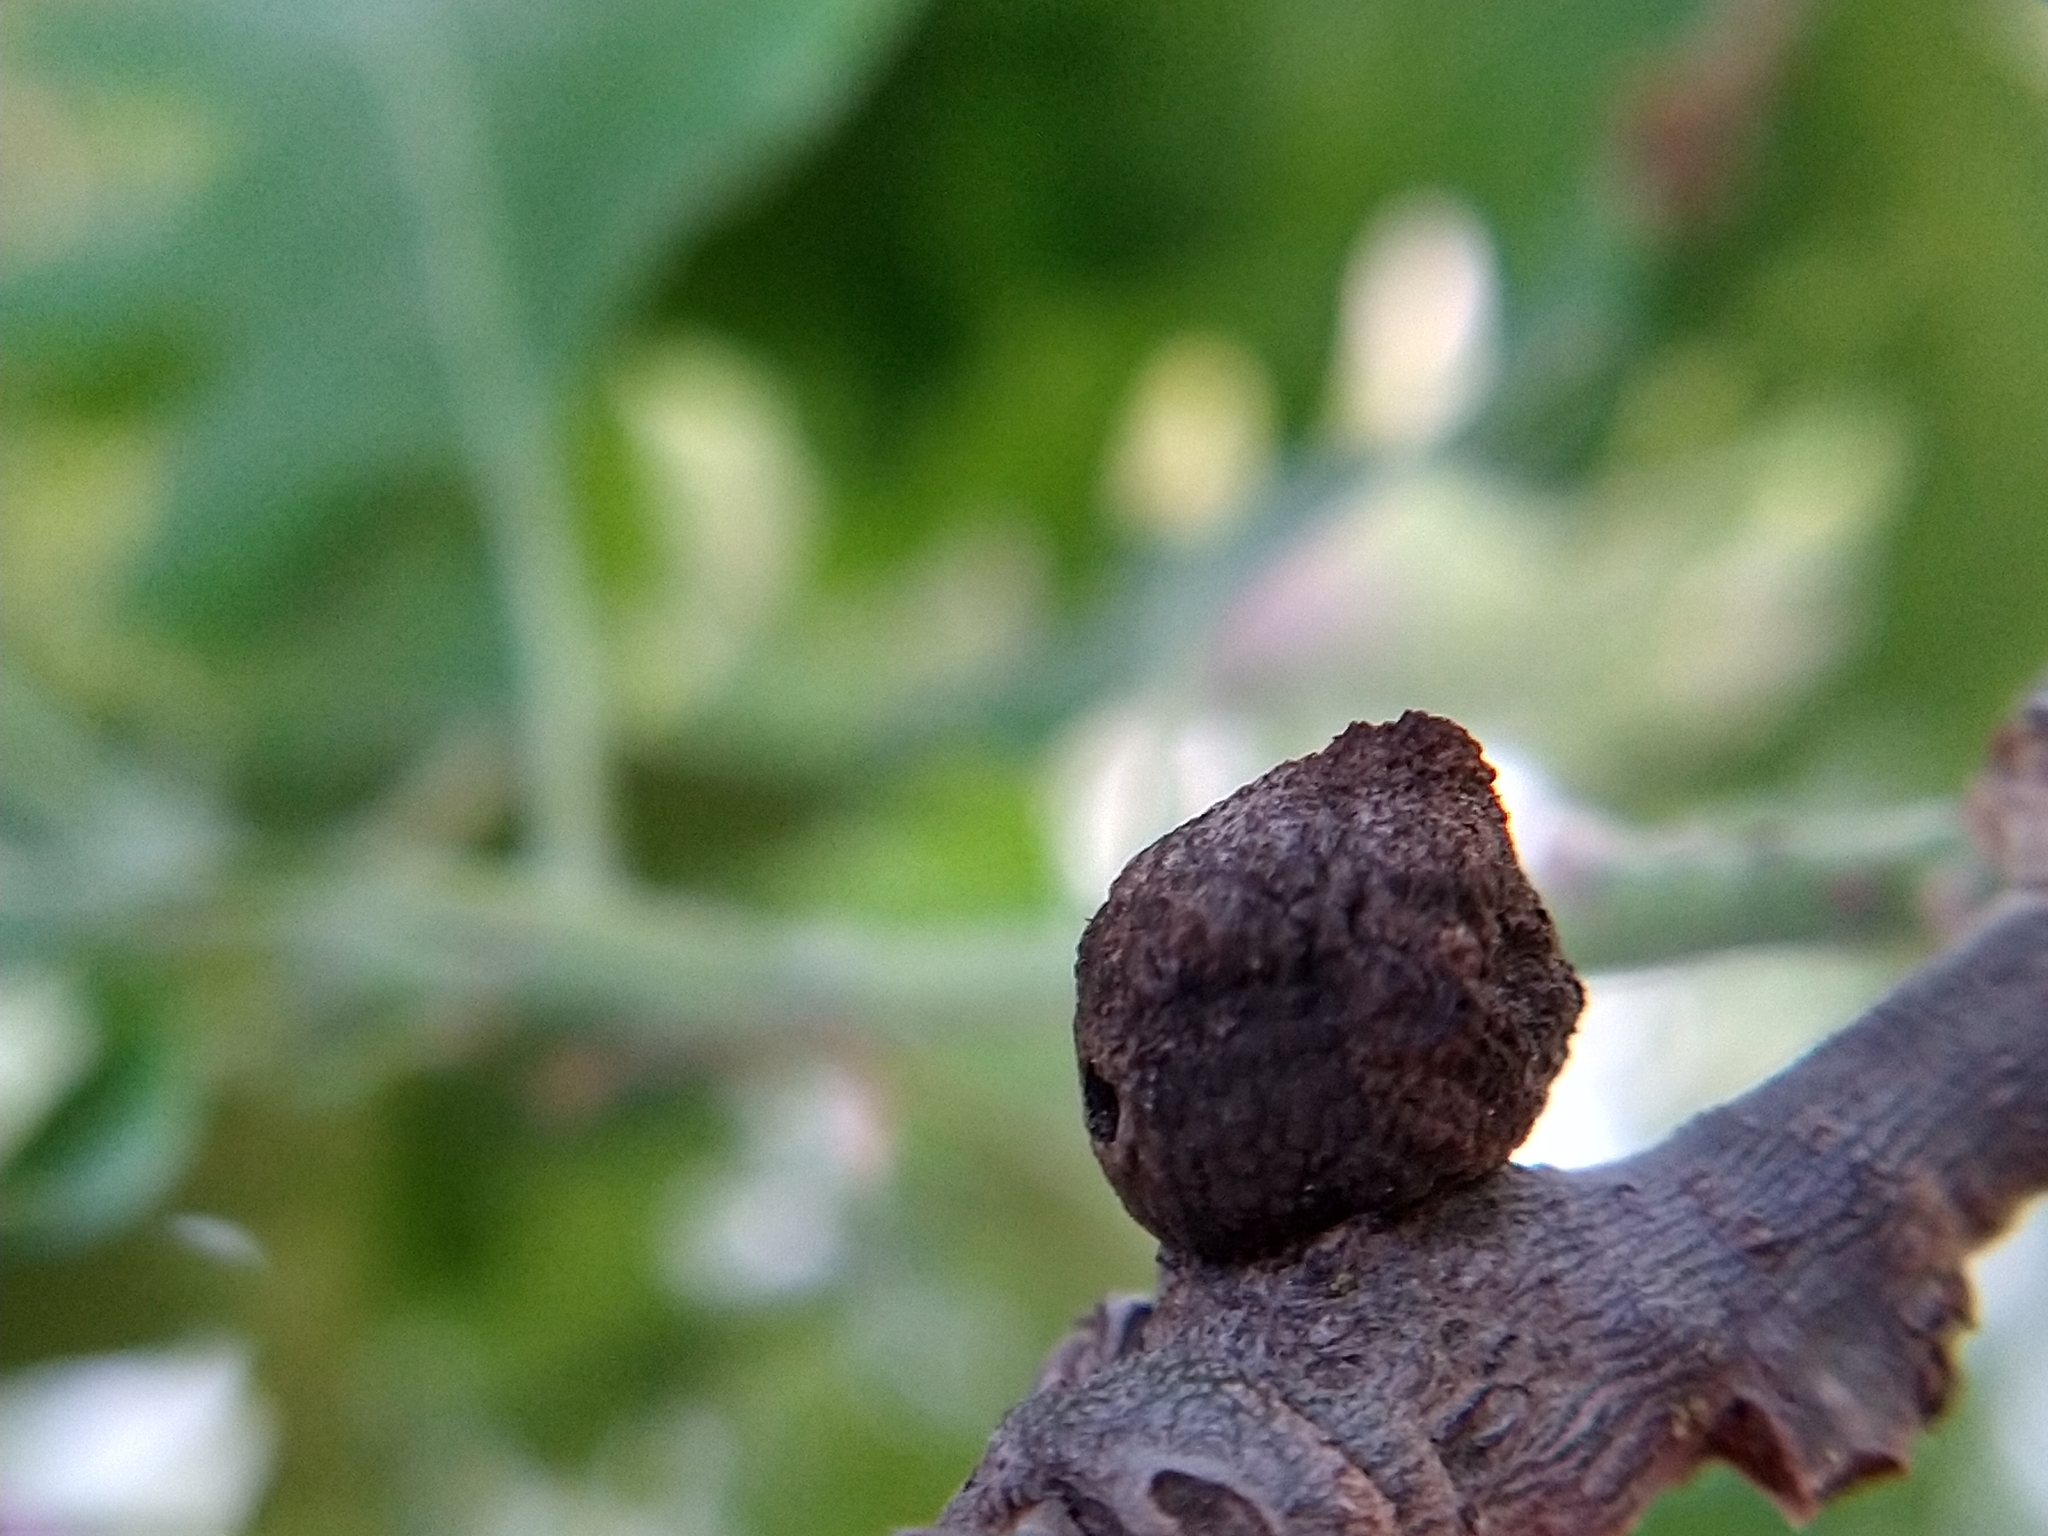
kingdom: Animalia
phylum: Arthropoda
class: Insecta
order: Hymenoptera
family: Cynipidae
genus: Disholcaspis
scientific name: Disholcaspis
